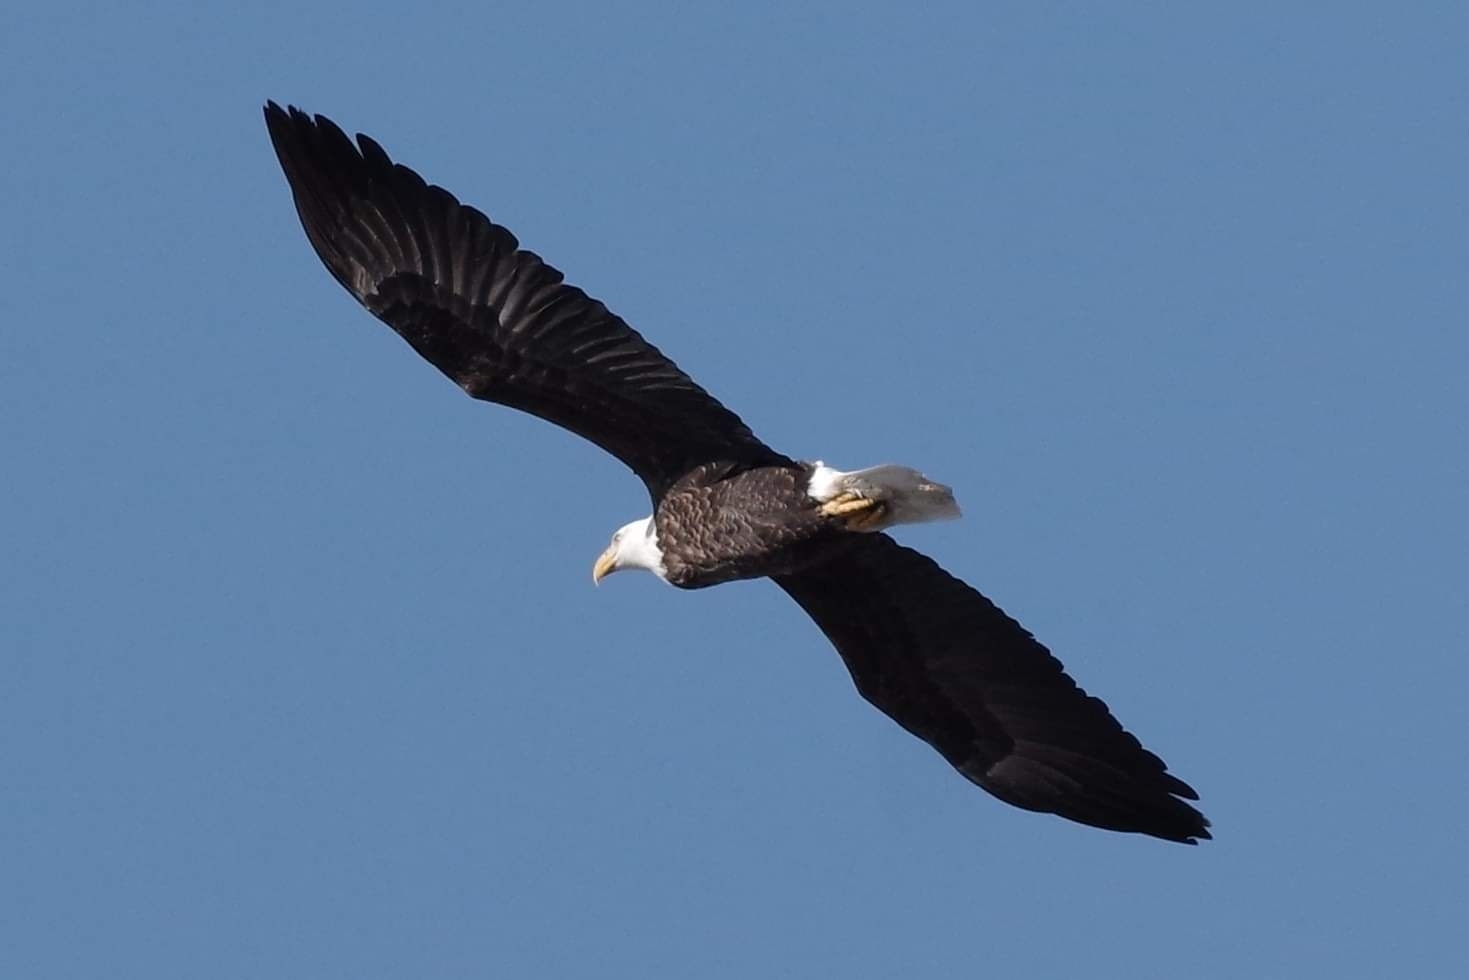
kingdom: Animalia
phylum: Chordata
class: Aves
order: Accipitriformes
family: Accipitridae
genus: Haliaeetus
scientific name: Haliaeetus leucocephalus
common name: Bald eagle
